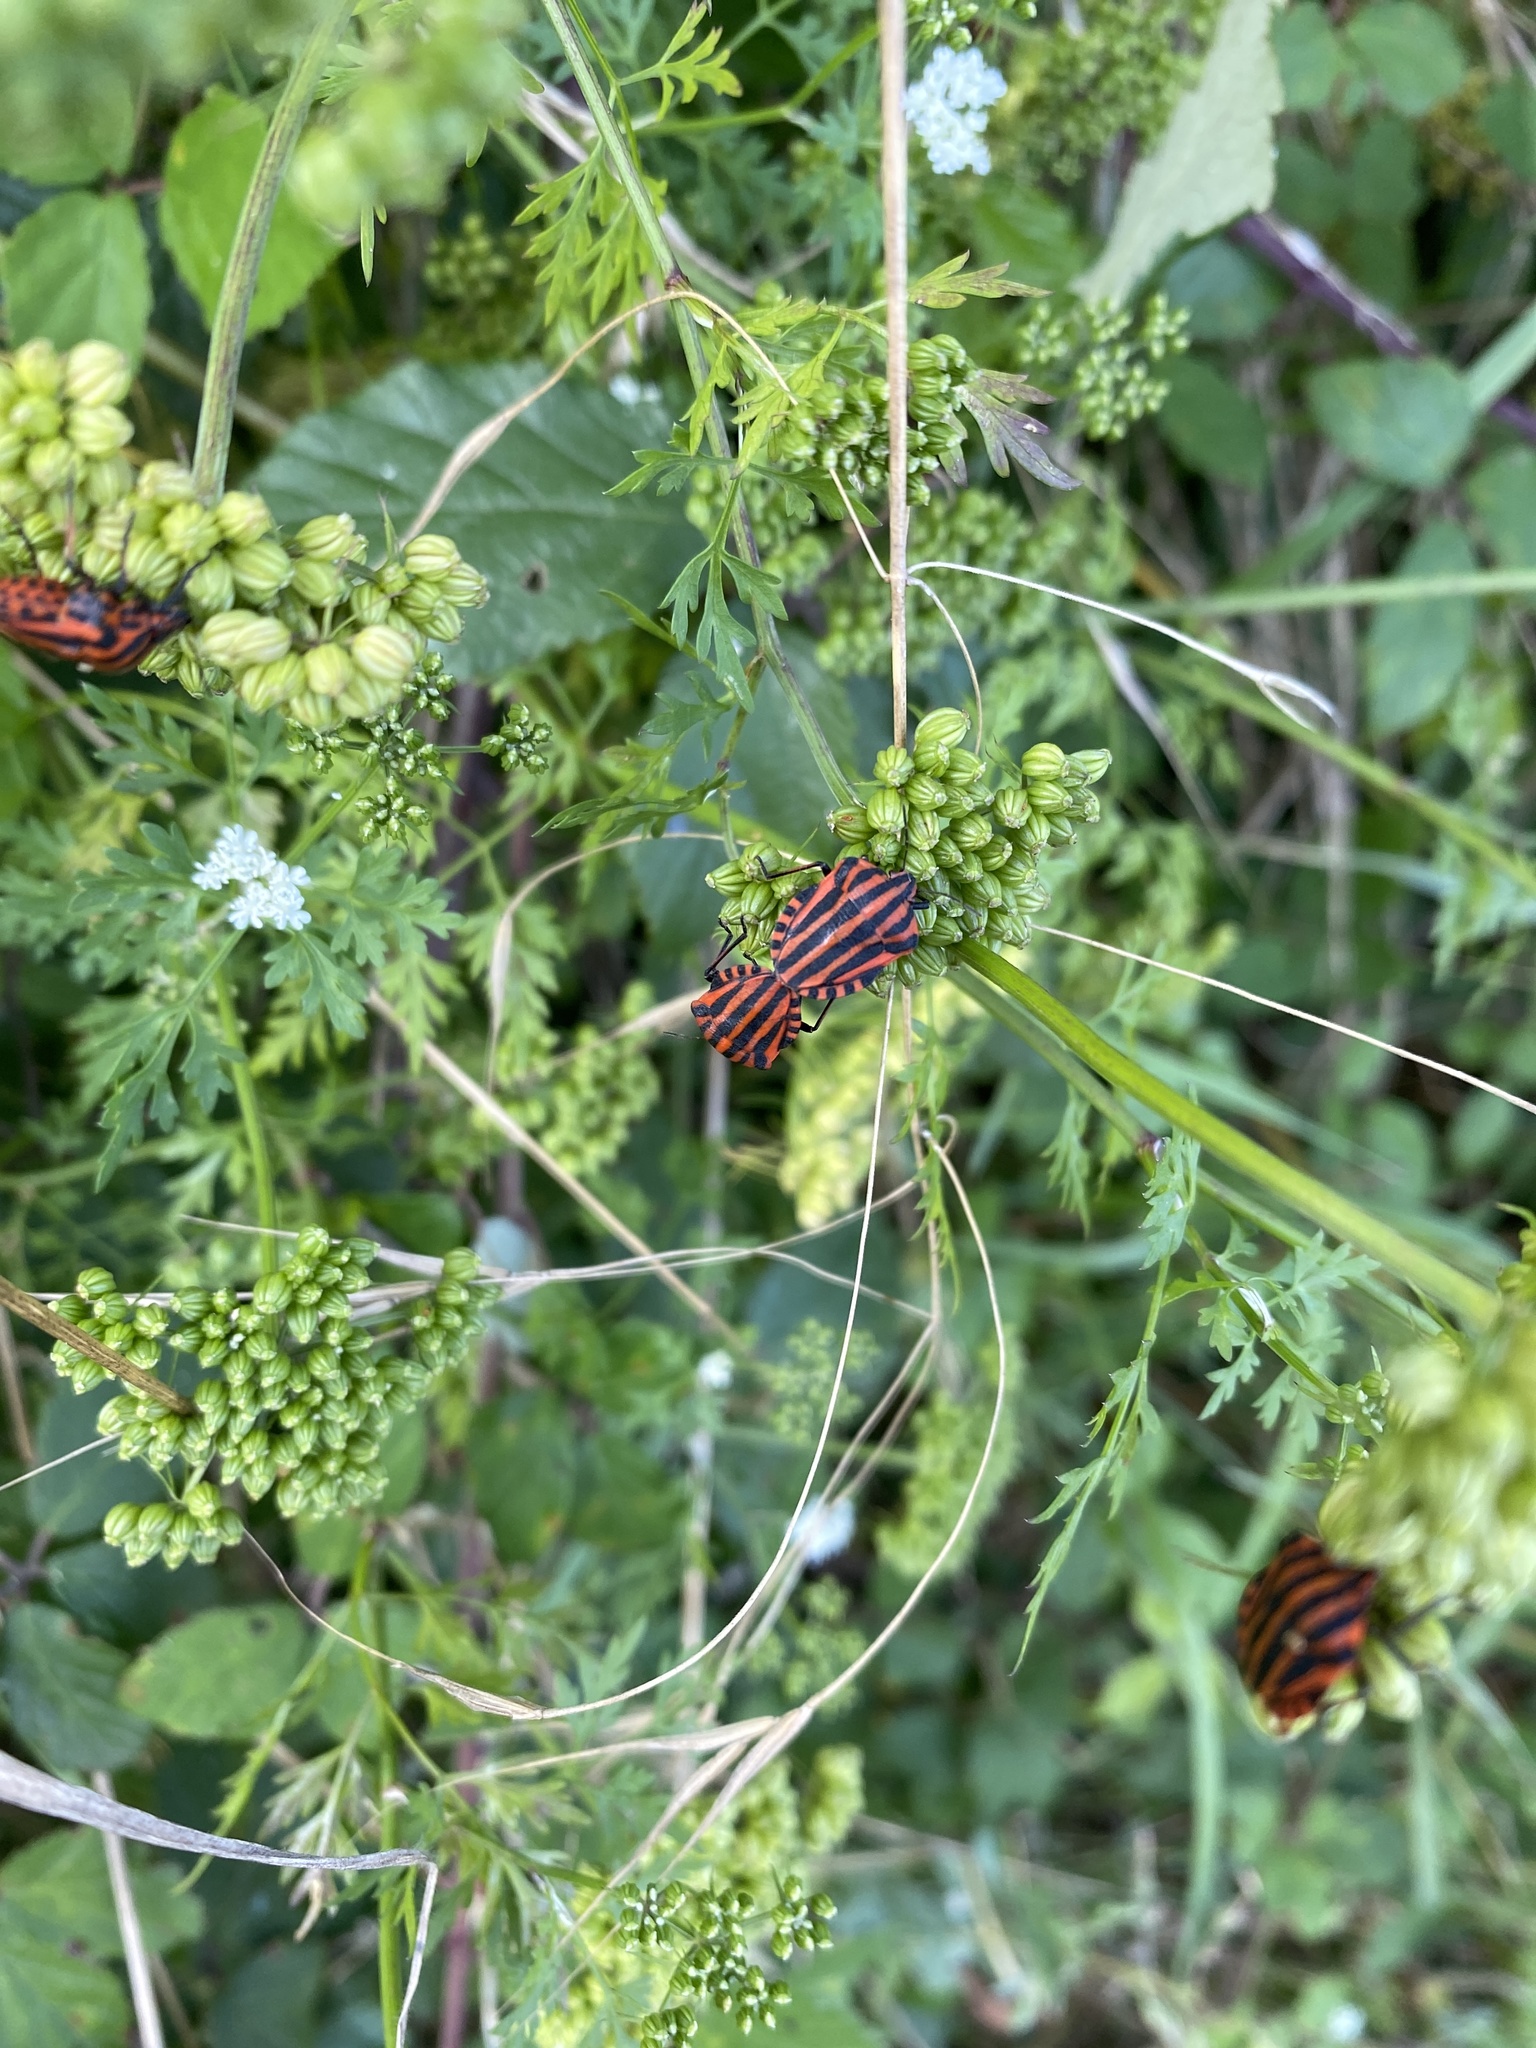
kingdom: Animalia
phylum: Arthropoda
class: Insecta
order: Hemiptera
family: Pentatomidae
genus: Graphosoma
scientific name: Graphosoma italicum
